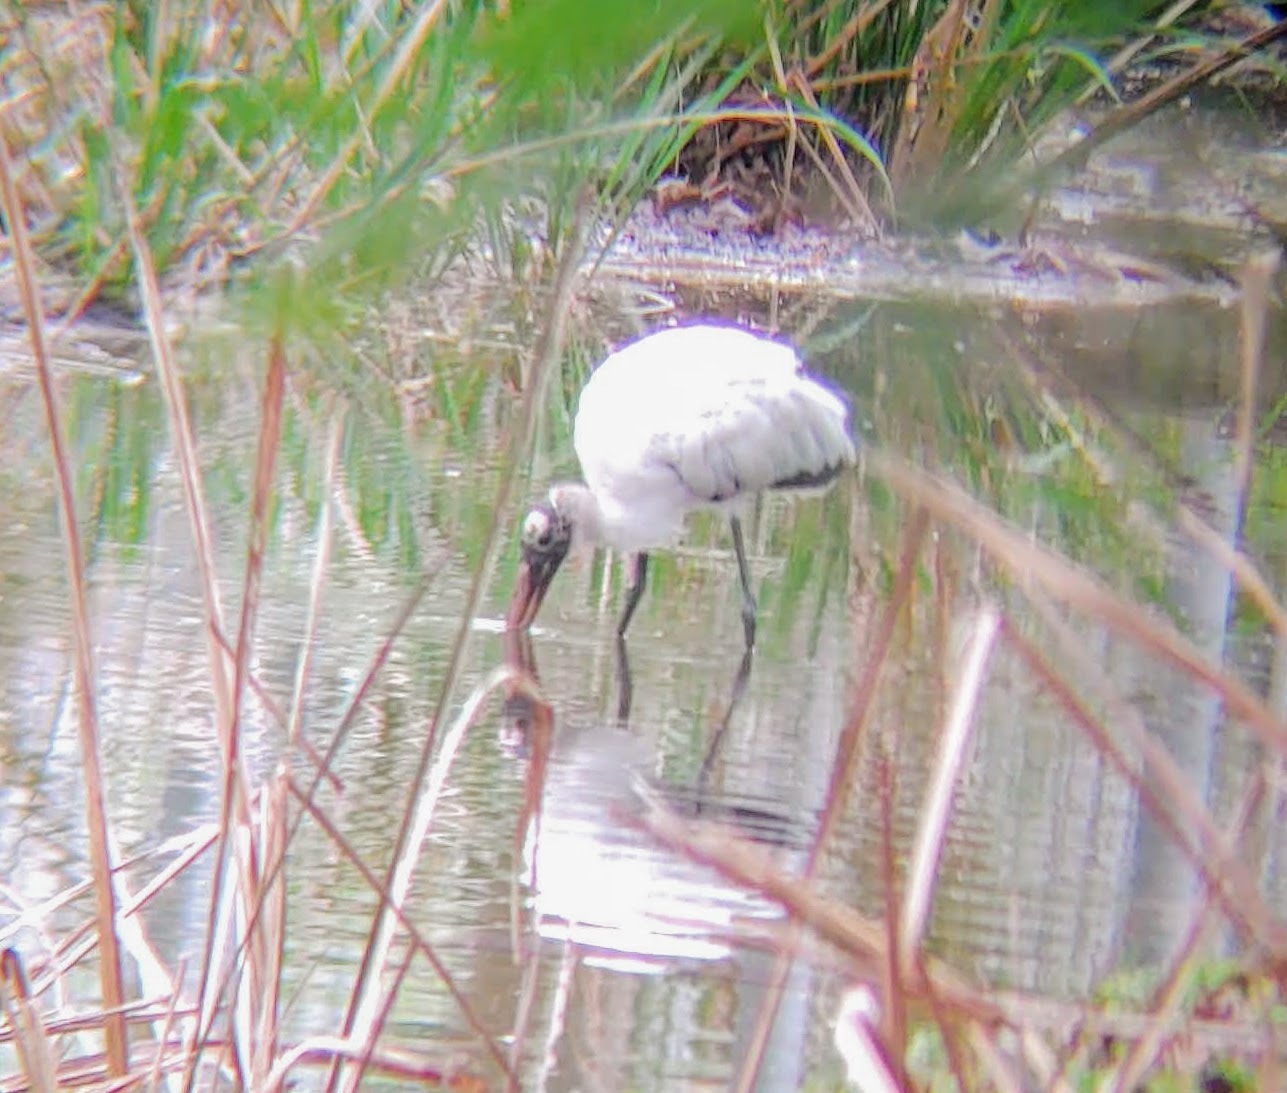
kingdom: Animalia
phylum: Chordata
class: Aves
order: Ciconiiformes
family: Ciconiidae
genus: Mycteria
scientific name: Mycteria americana
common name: Wood stork
